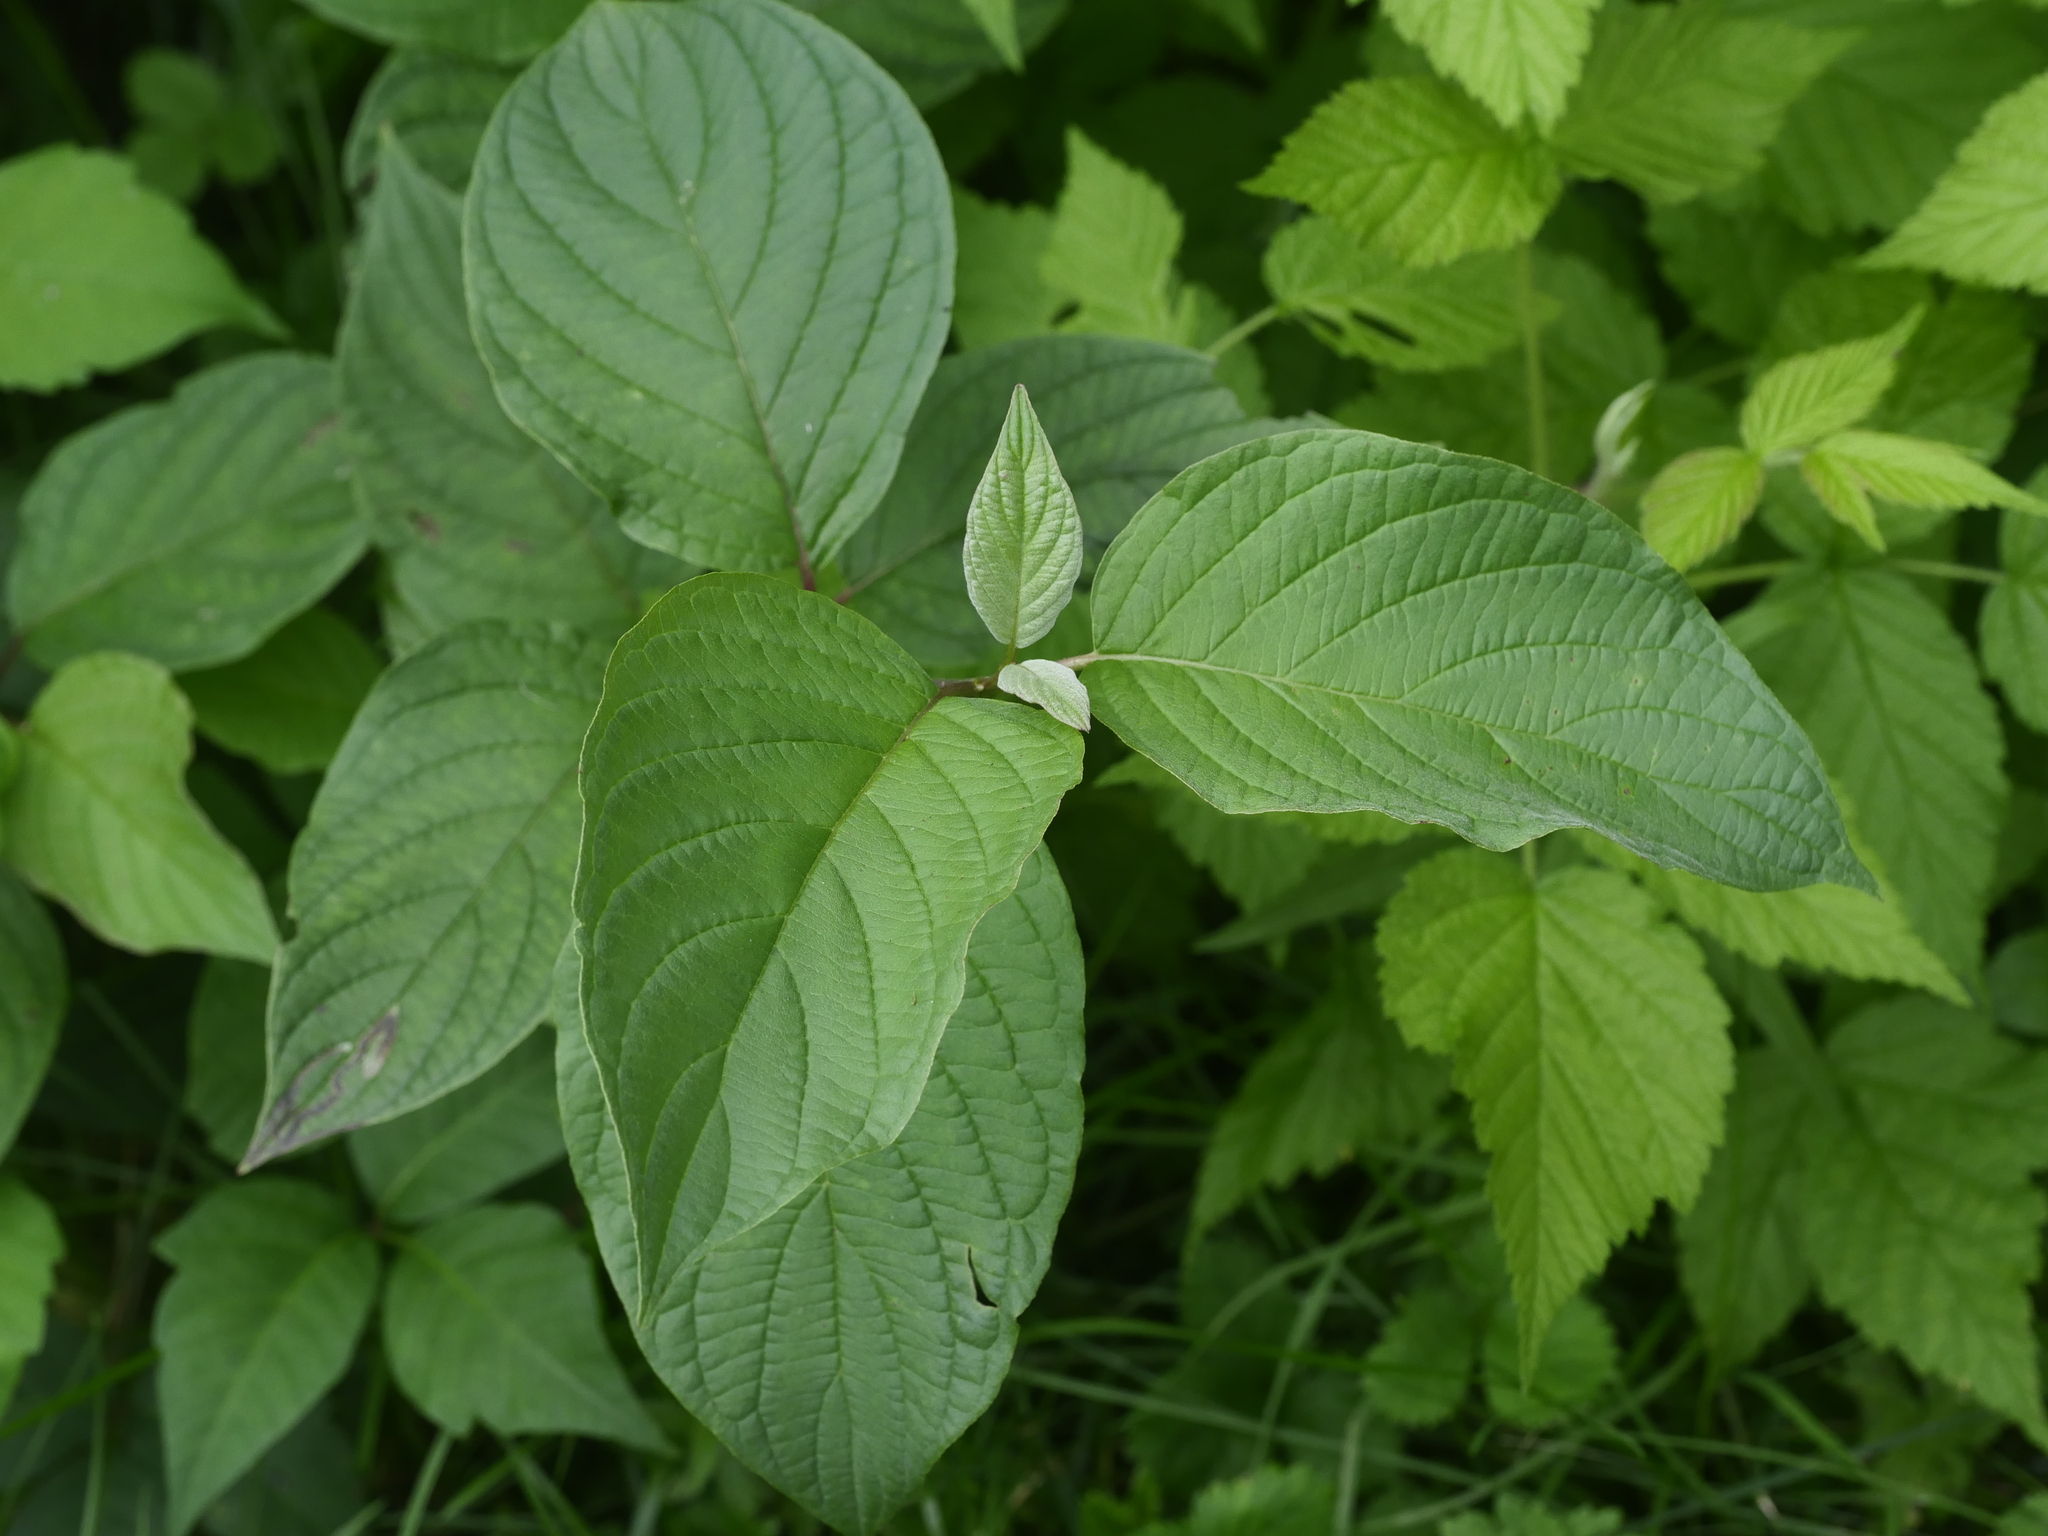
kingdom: Plantae
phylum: Tracheophyta
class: Magnoliopsida
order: Cornales
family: Cornaceae
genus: Cornus
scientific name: Cornus sericea
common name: Red-osier dogwood
